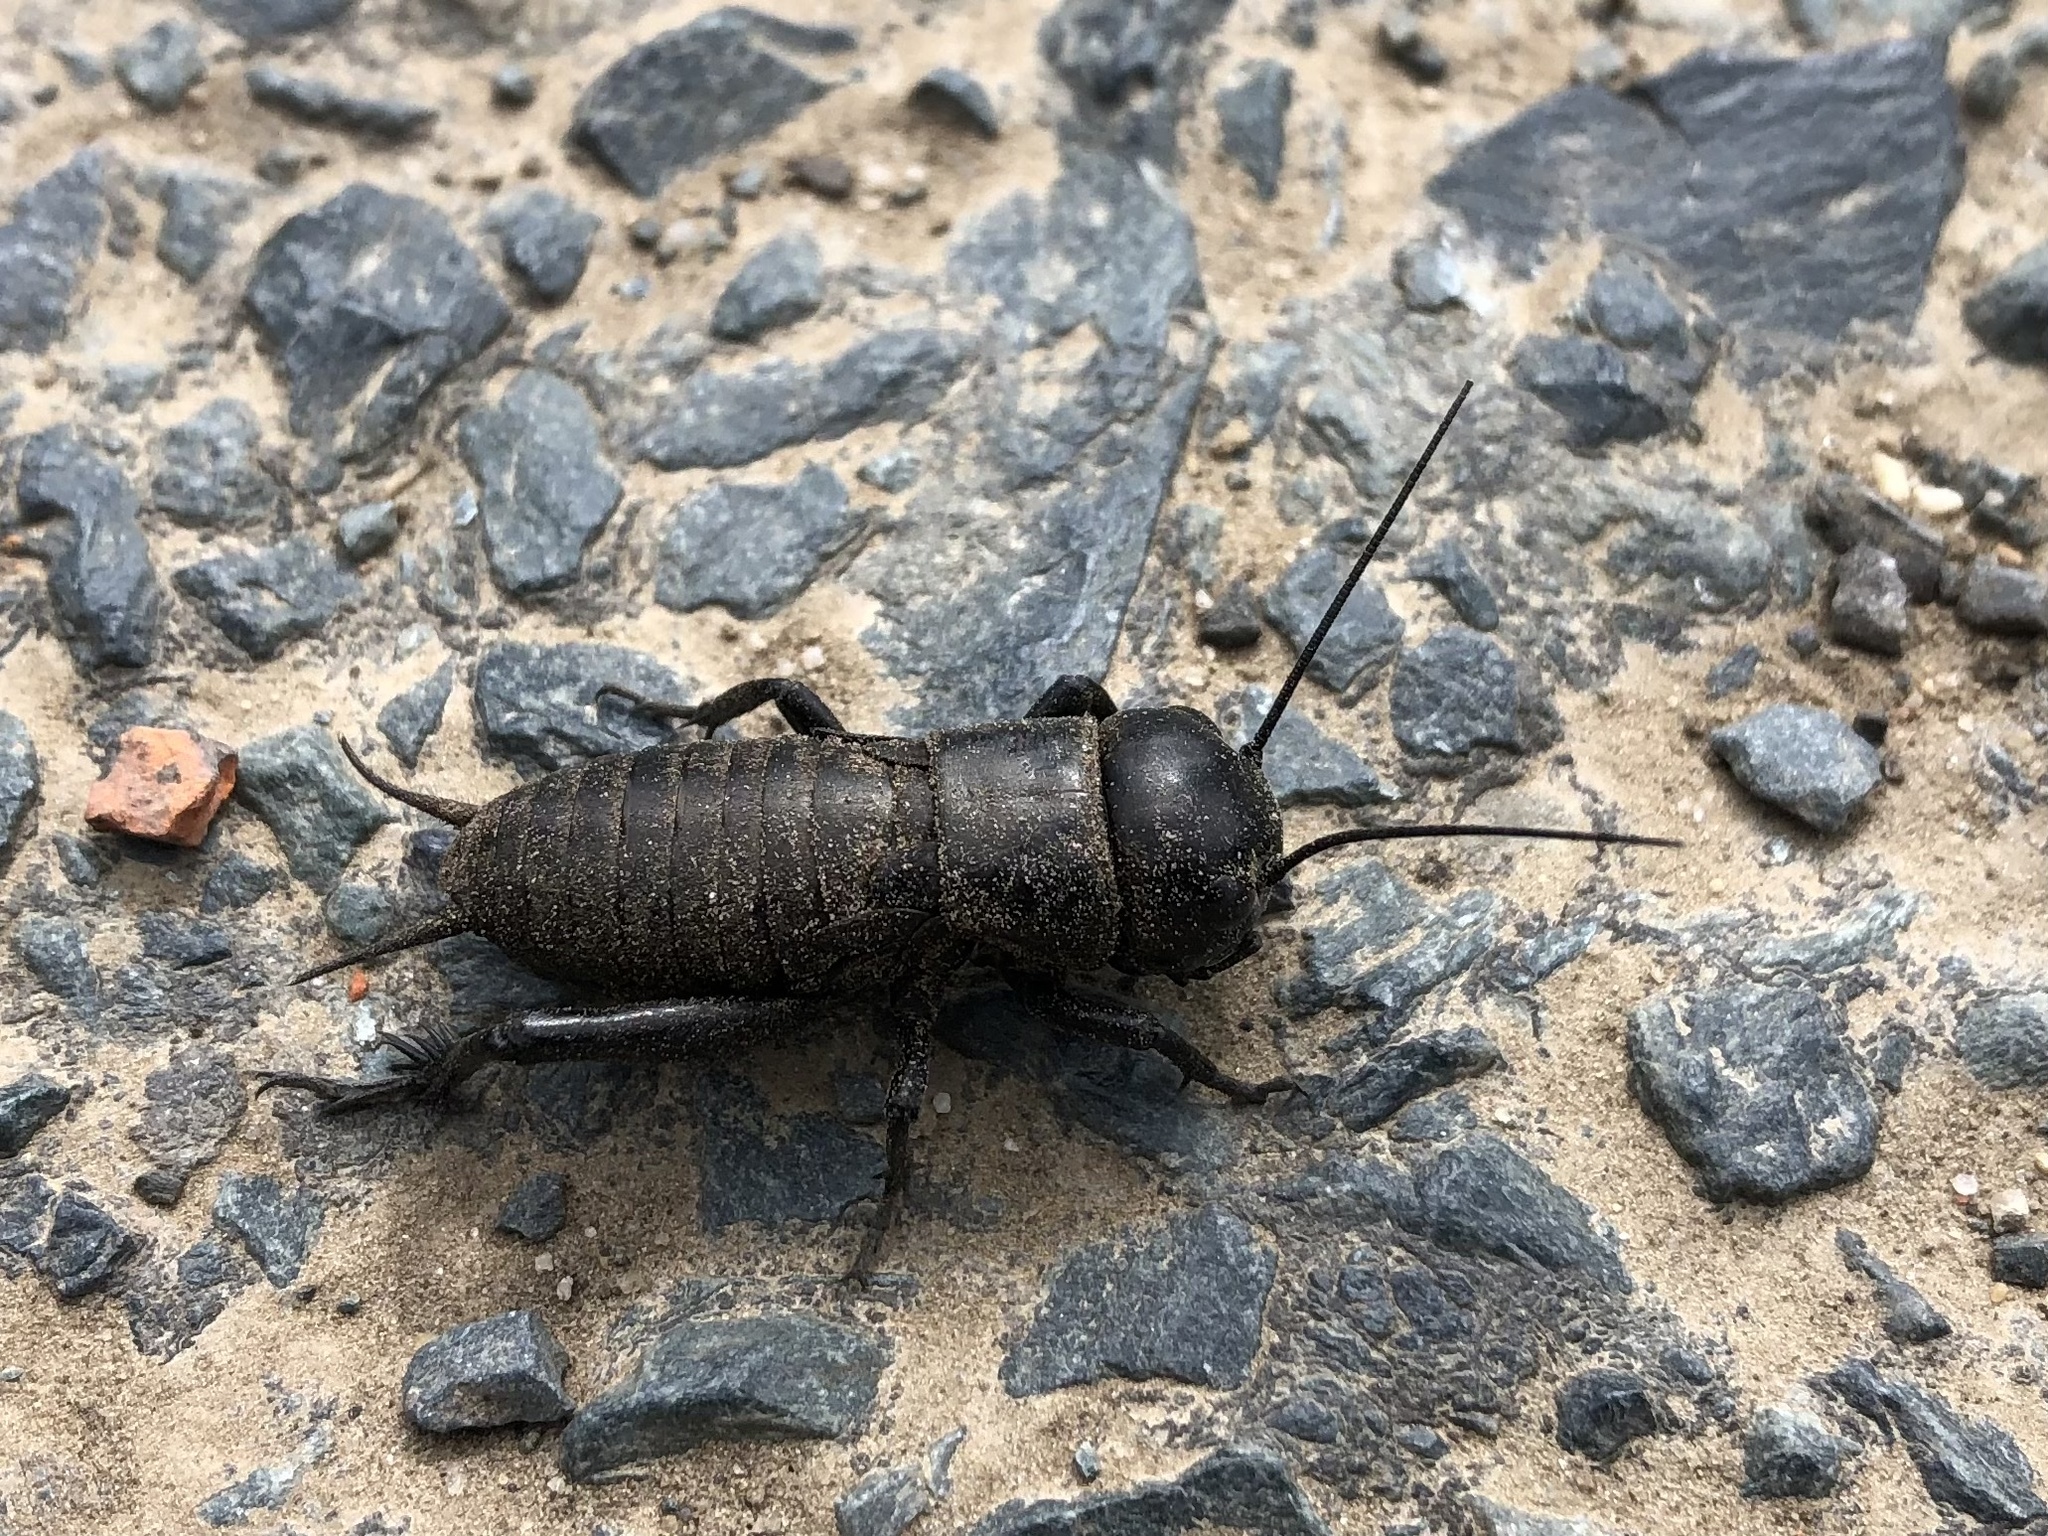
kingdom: Animalia
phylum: Arthropoda
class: Insecta
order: Orthoptera
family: Gryllidae
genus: Gryllus
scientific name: Gryllus campestris
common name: Field cricket
